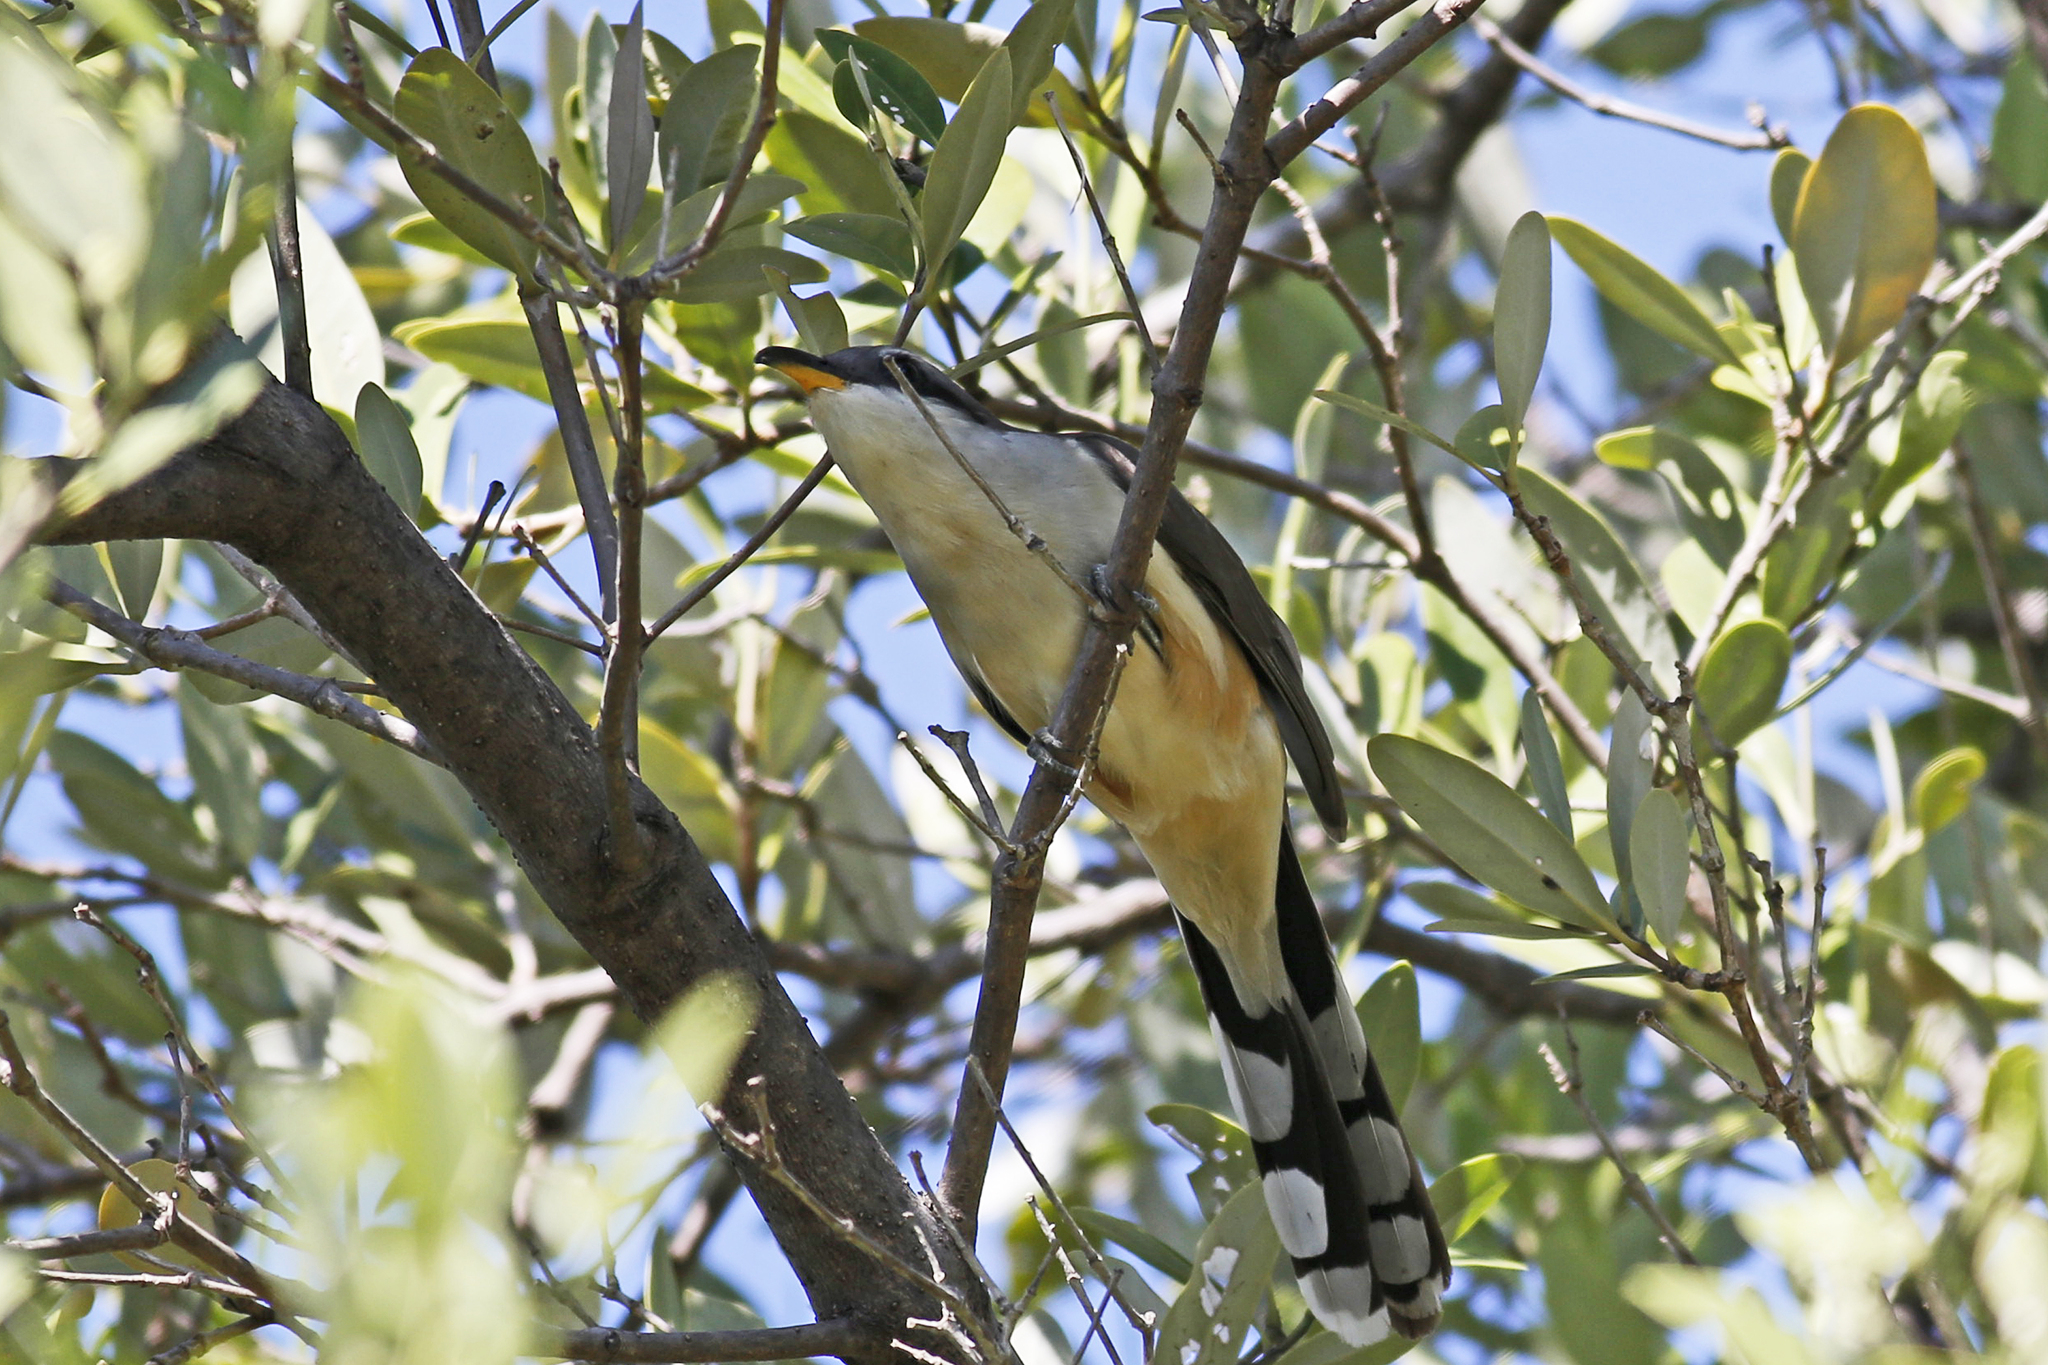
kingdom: Animalia
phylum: Chordata
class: Aves
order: Cuculiformes
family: Cuculidae
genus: Coccyzus
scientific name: Coccyzus minor
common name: Mangrove cuckoo
